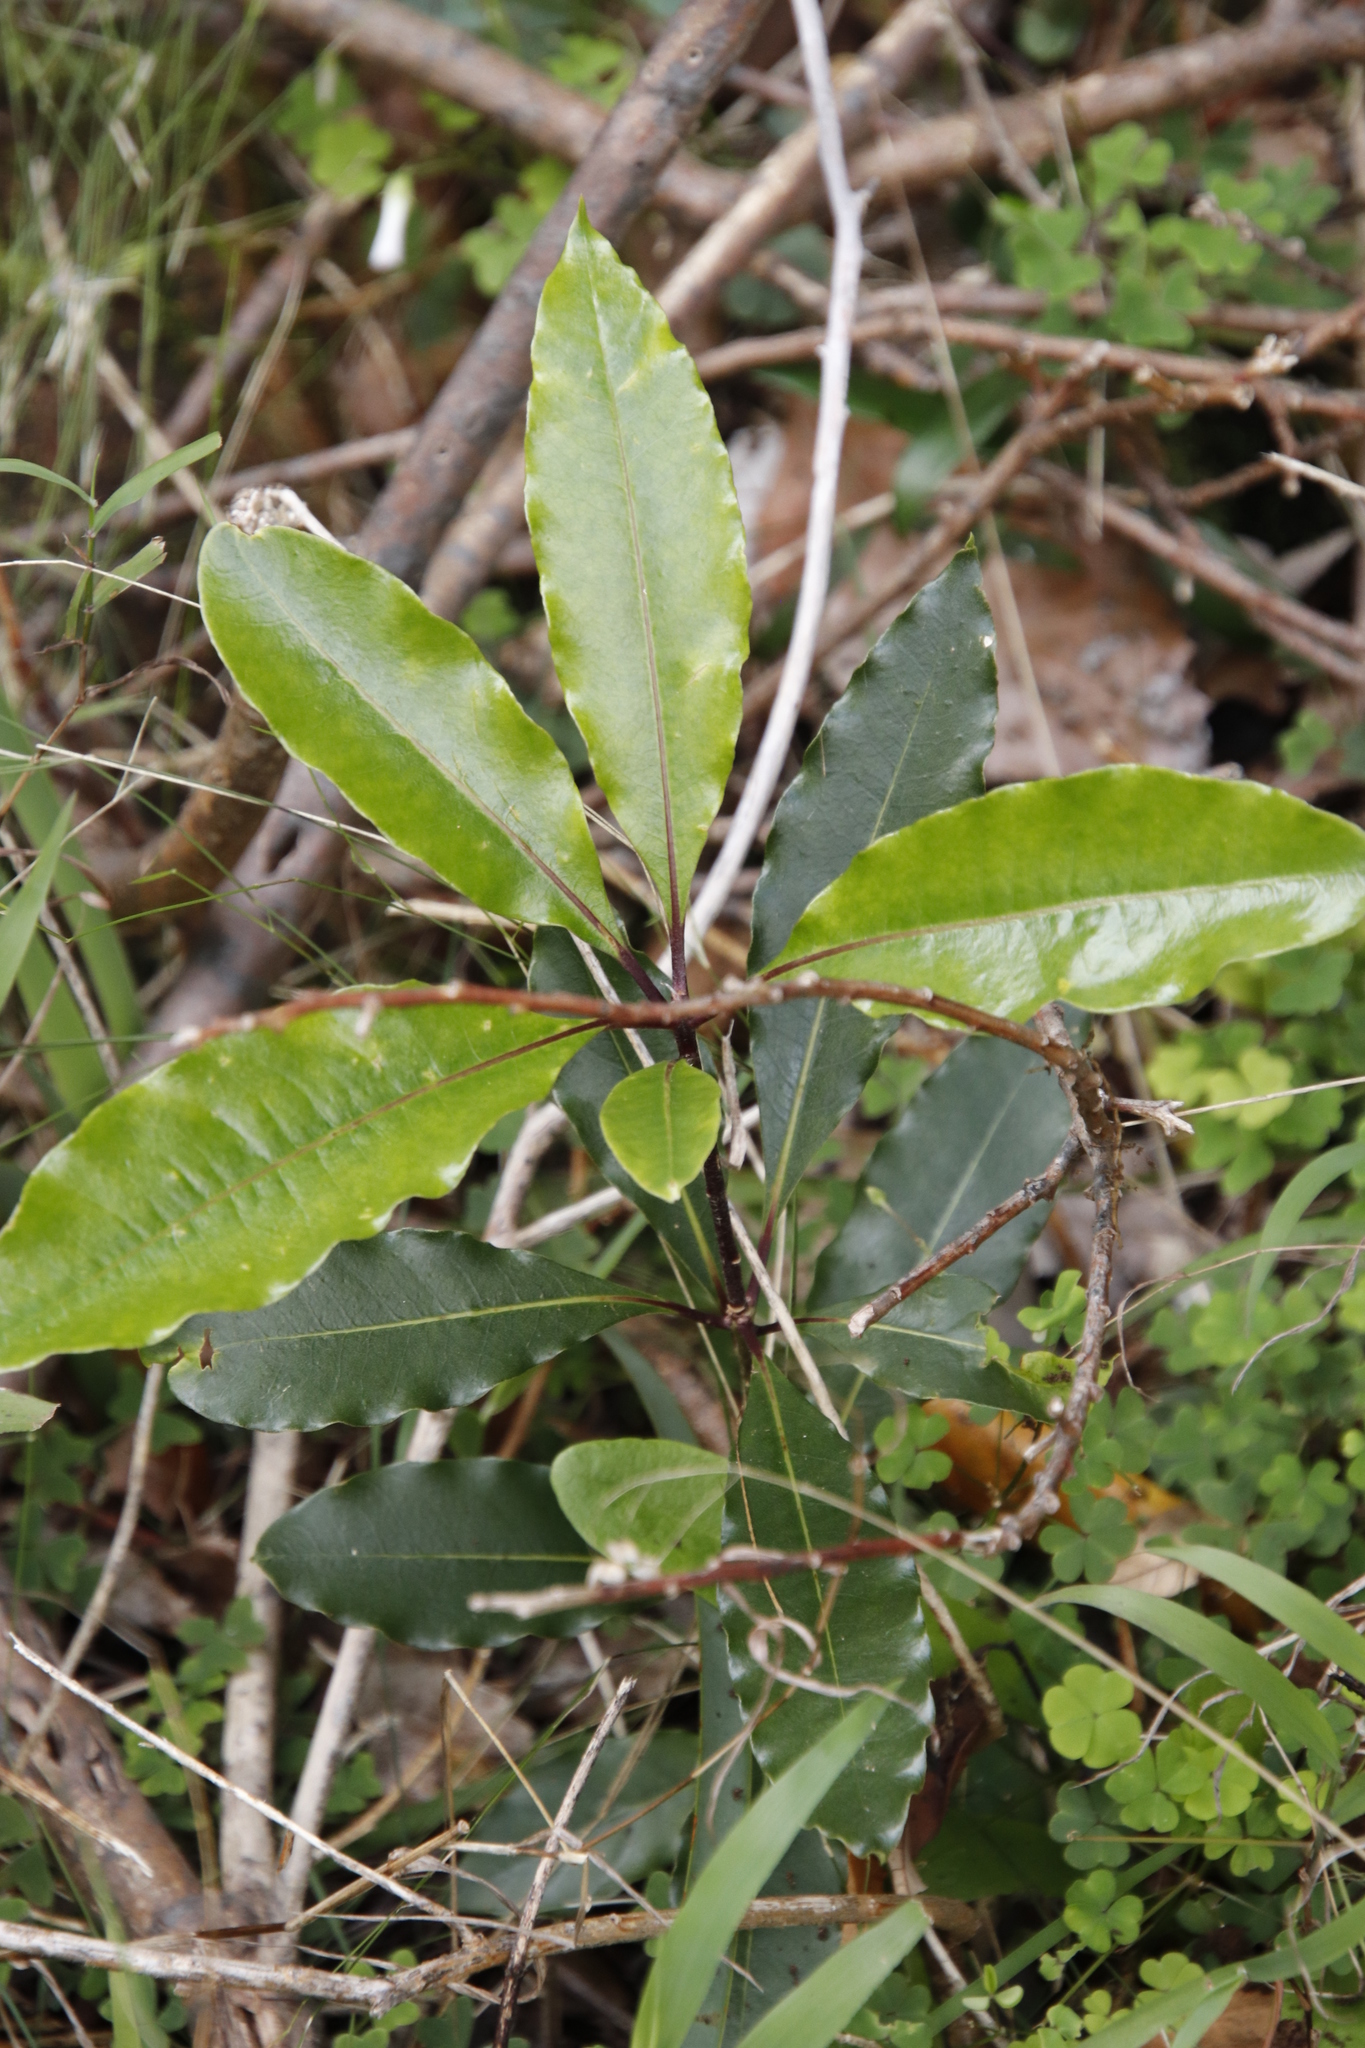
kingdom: Plantae
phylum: Tracheophyta
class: Magnoliopsida
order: Ericales
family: Primulaceae
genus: Myrsine
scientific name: Myrsine melanophloeos
